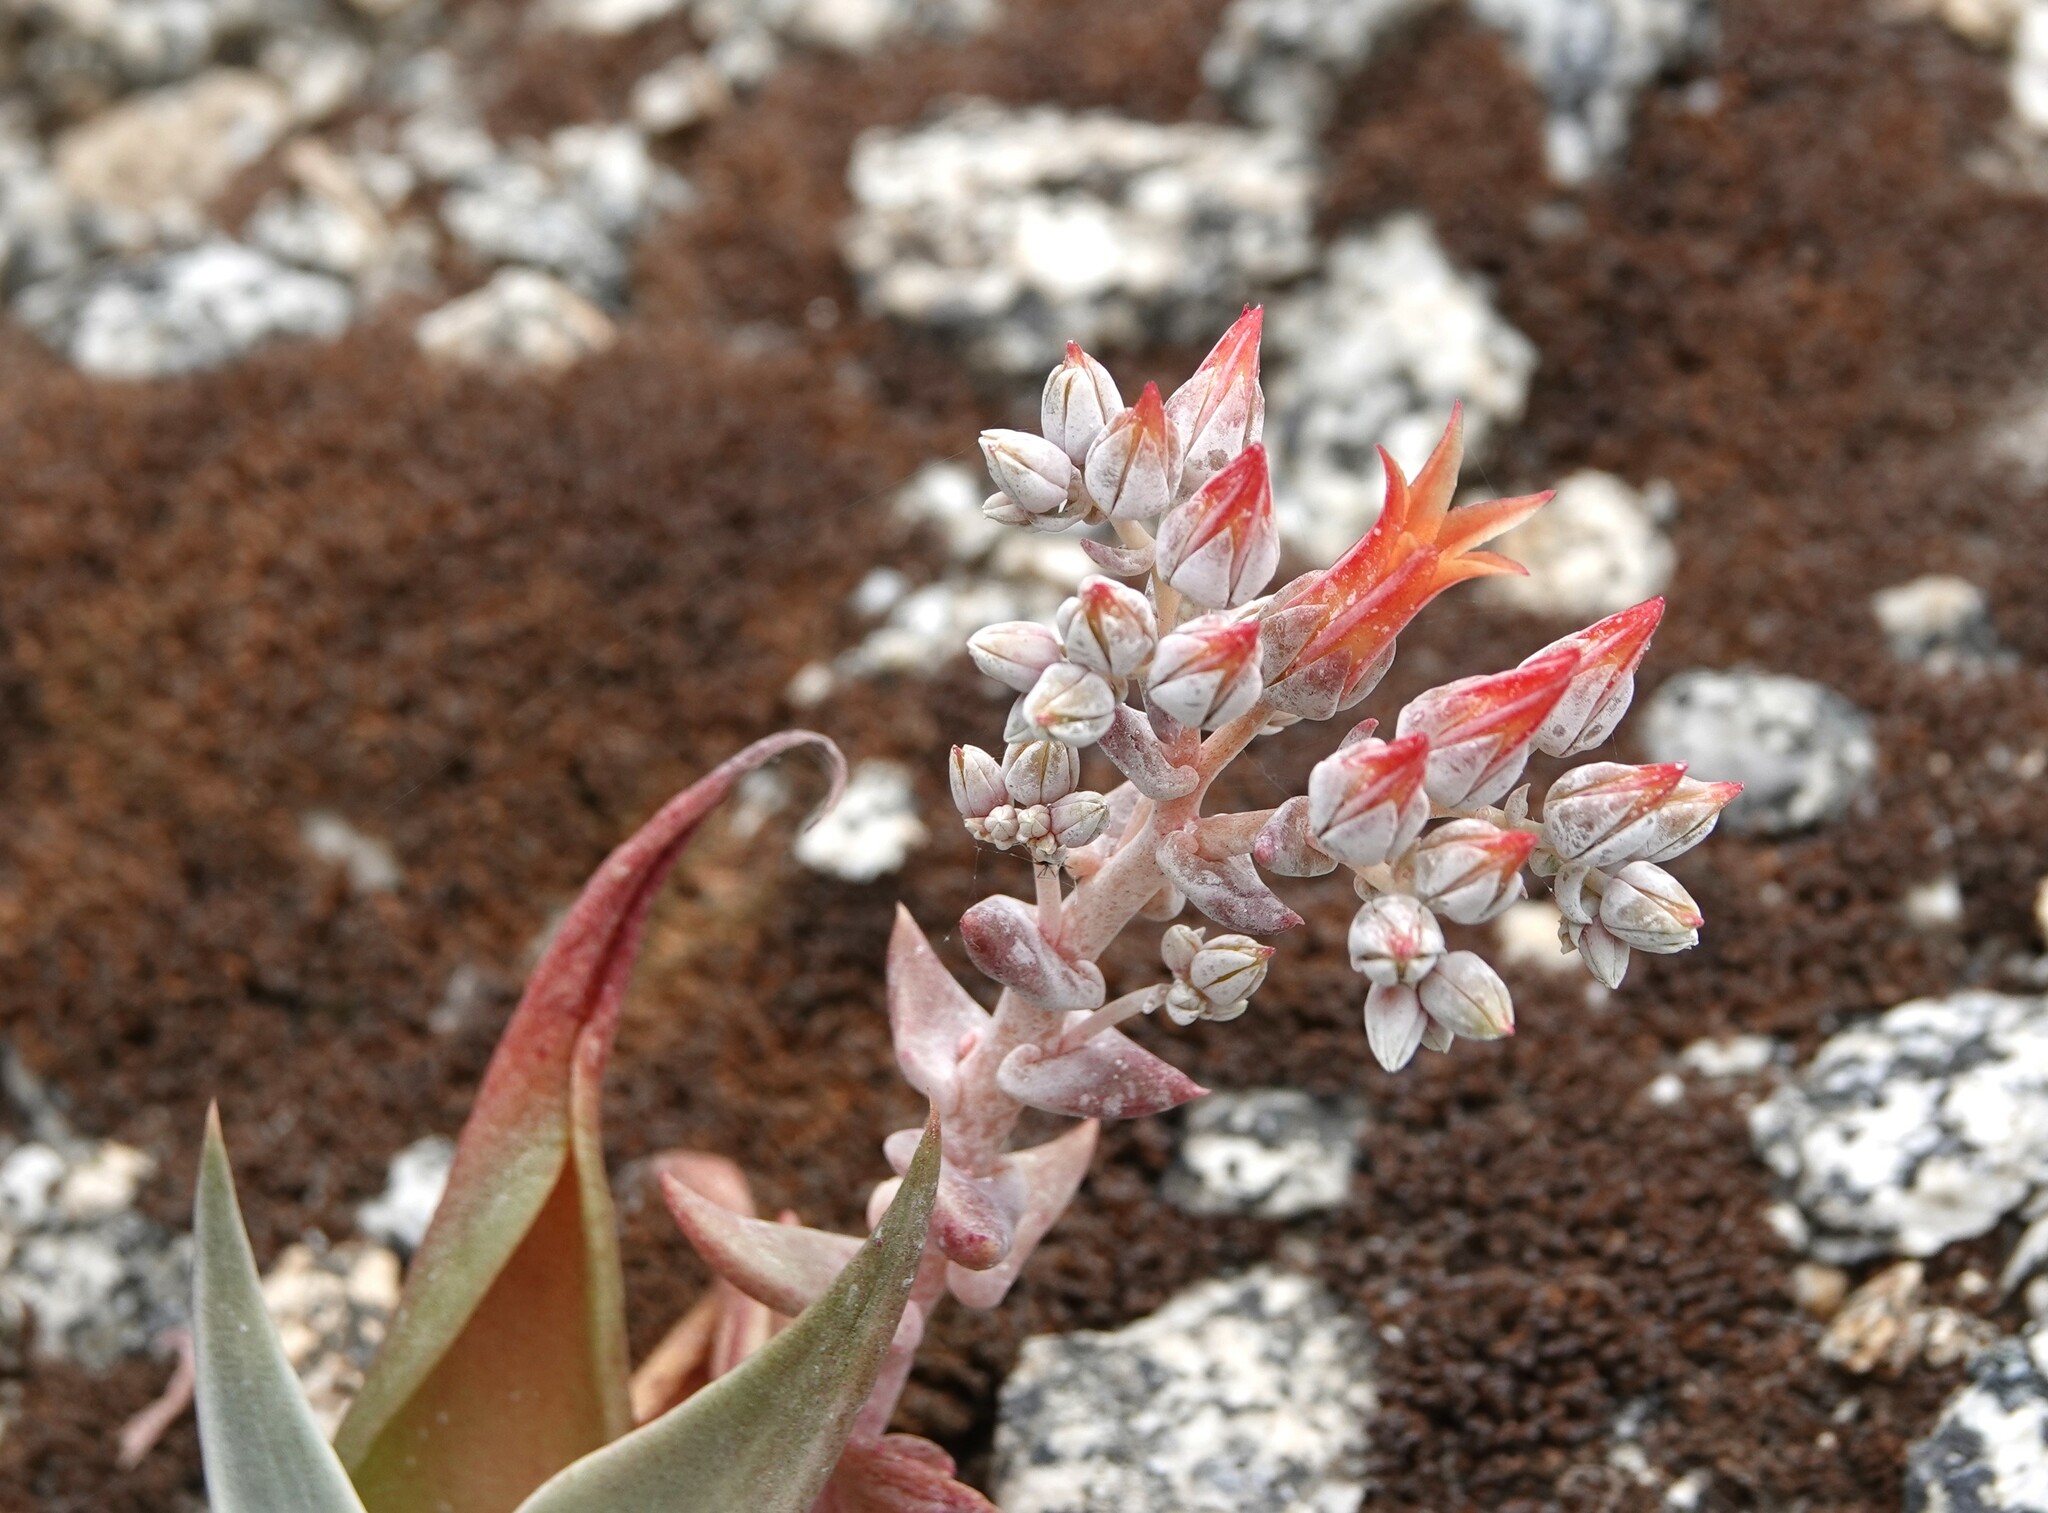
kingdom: Plantae
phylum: Tracheophyta
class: Magnoliopsida
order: Saxifragales
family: Crassulaceae
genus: Dudleya
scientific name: Dudleya abramsii
